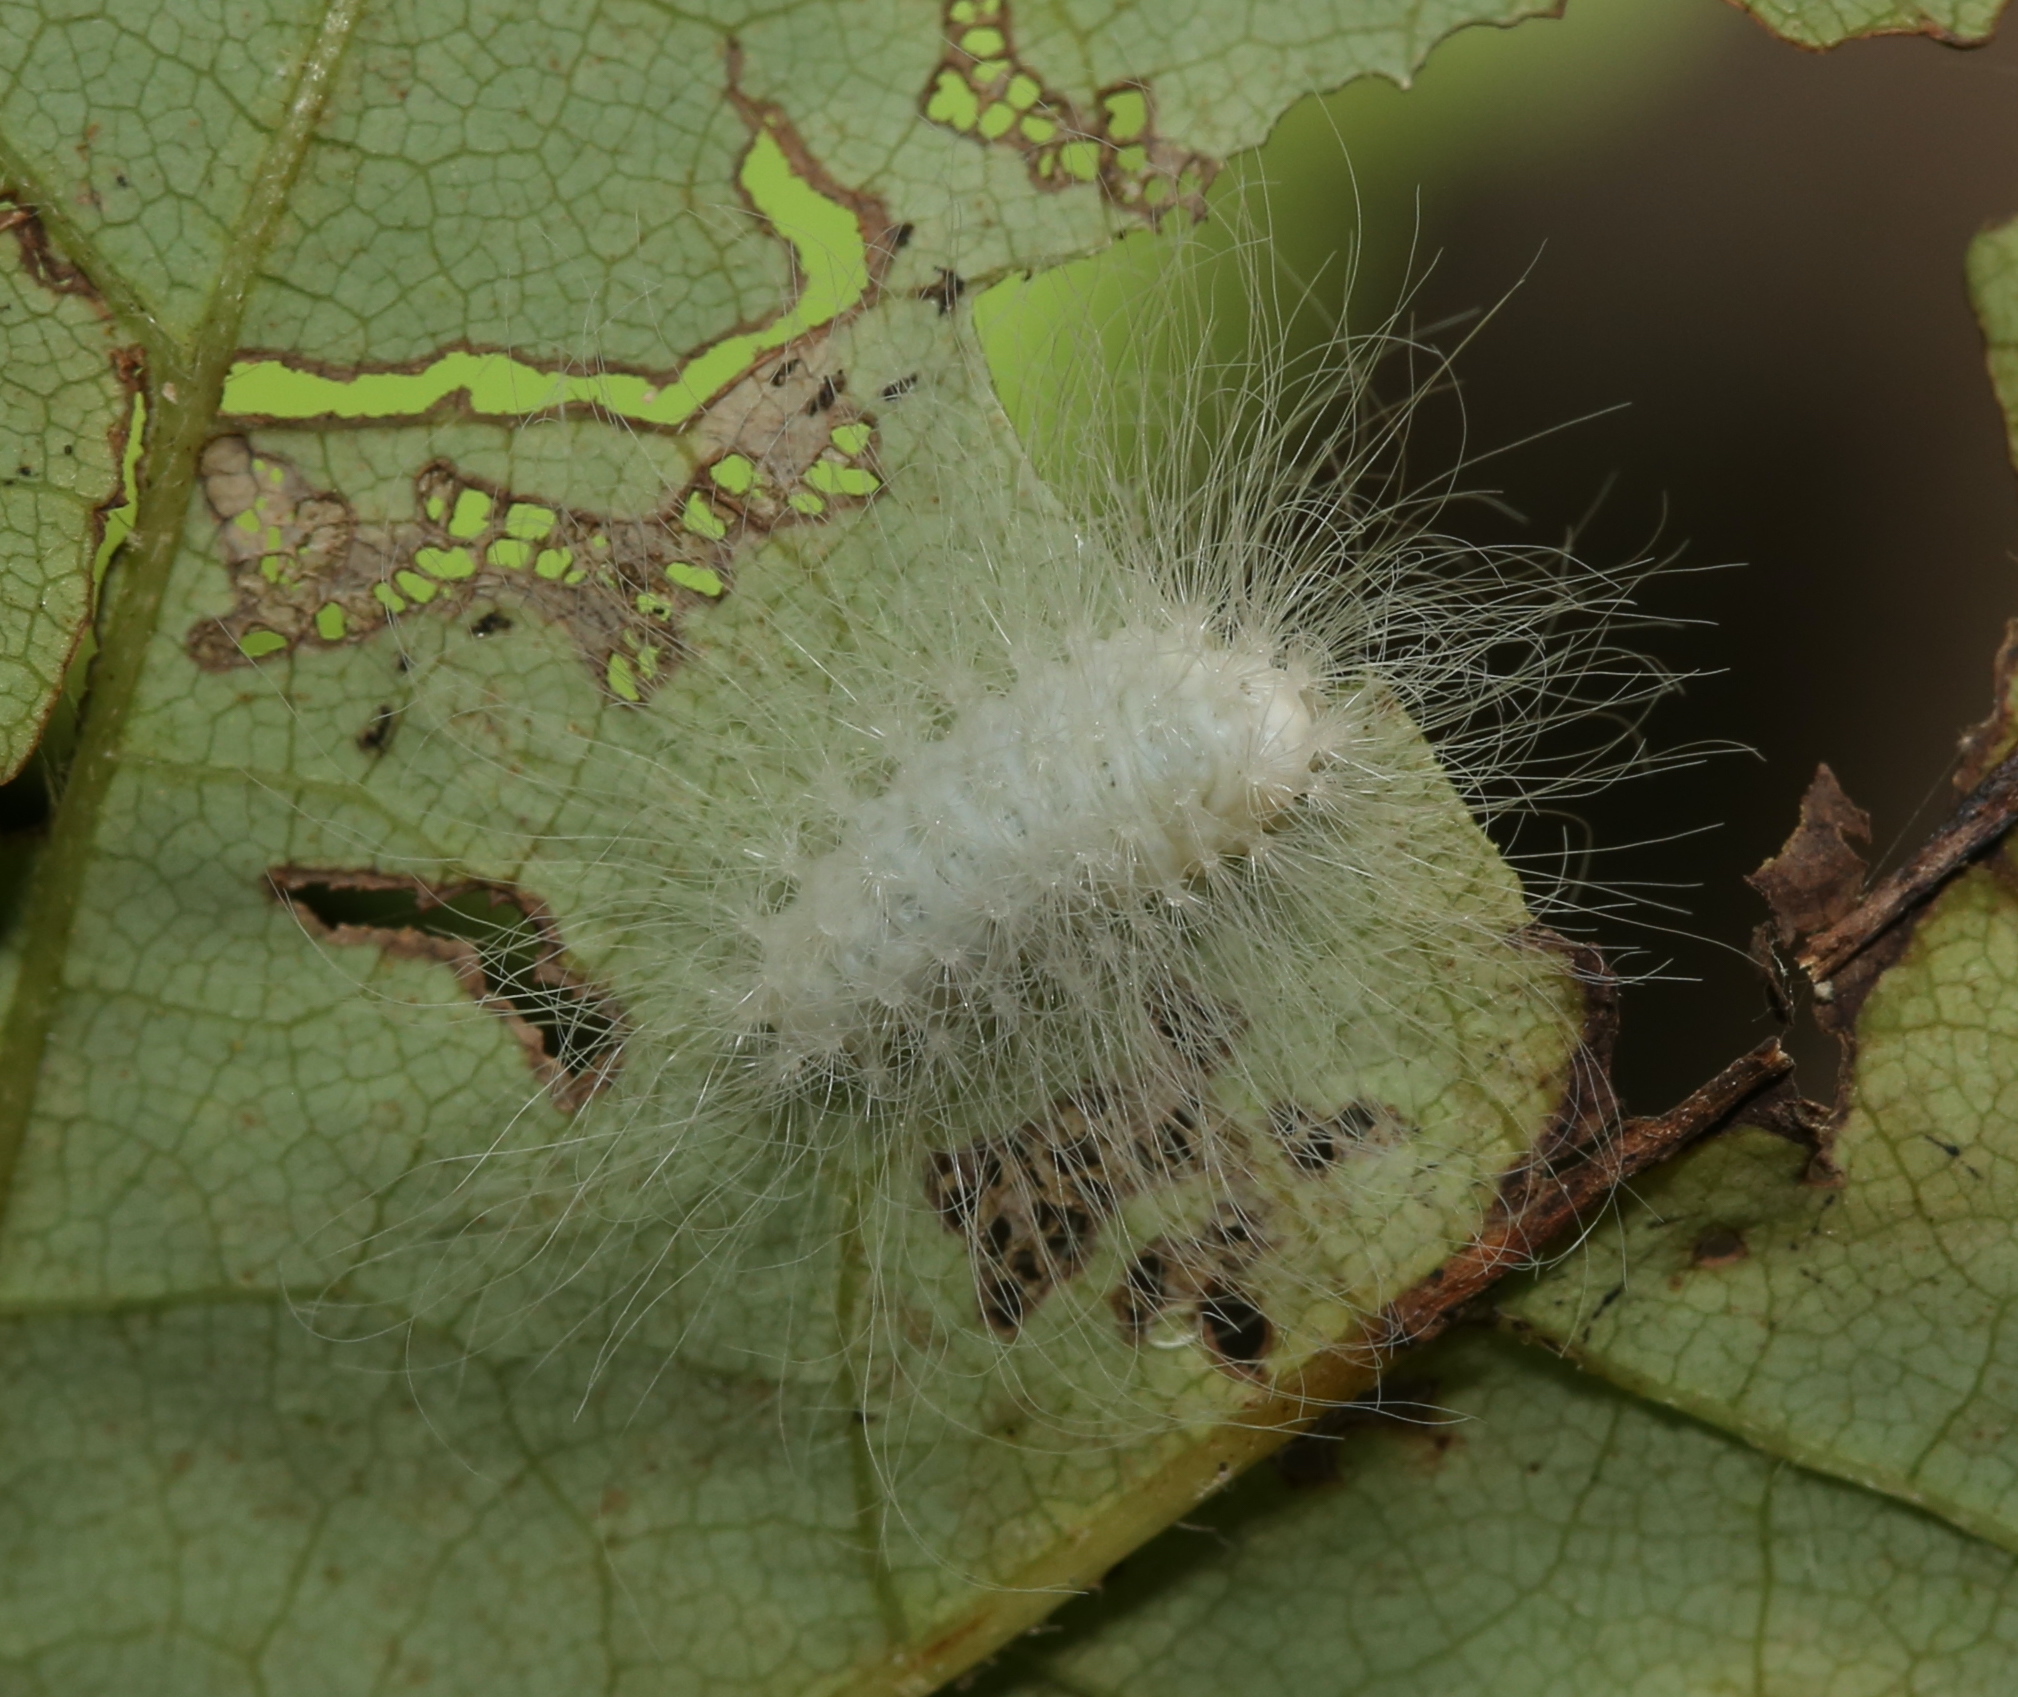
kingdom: Animalia
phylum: Arthropoda
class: Insecta
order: Lepidoptera
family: Megalopygidae
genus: Megalopyge
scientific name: Megalopyge crispata
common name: Black-waved flannel moth
